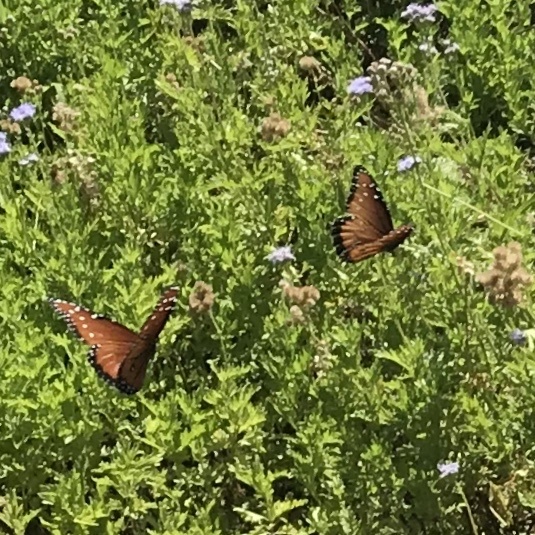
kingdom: Animalia
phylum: Arthropoda
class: Insecta
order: Lepidoptera
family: Nymphalidae
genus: Danaus
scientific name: Danaus gilippus
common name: Queen
